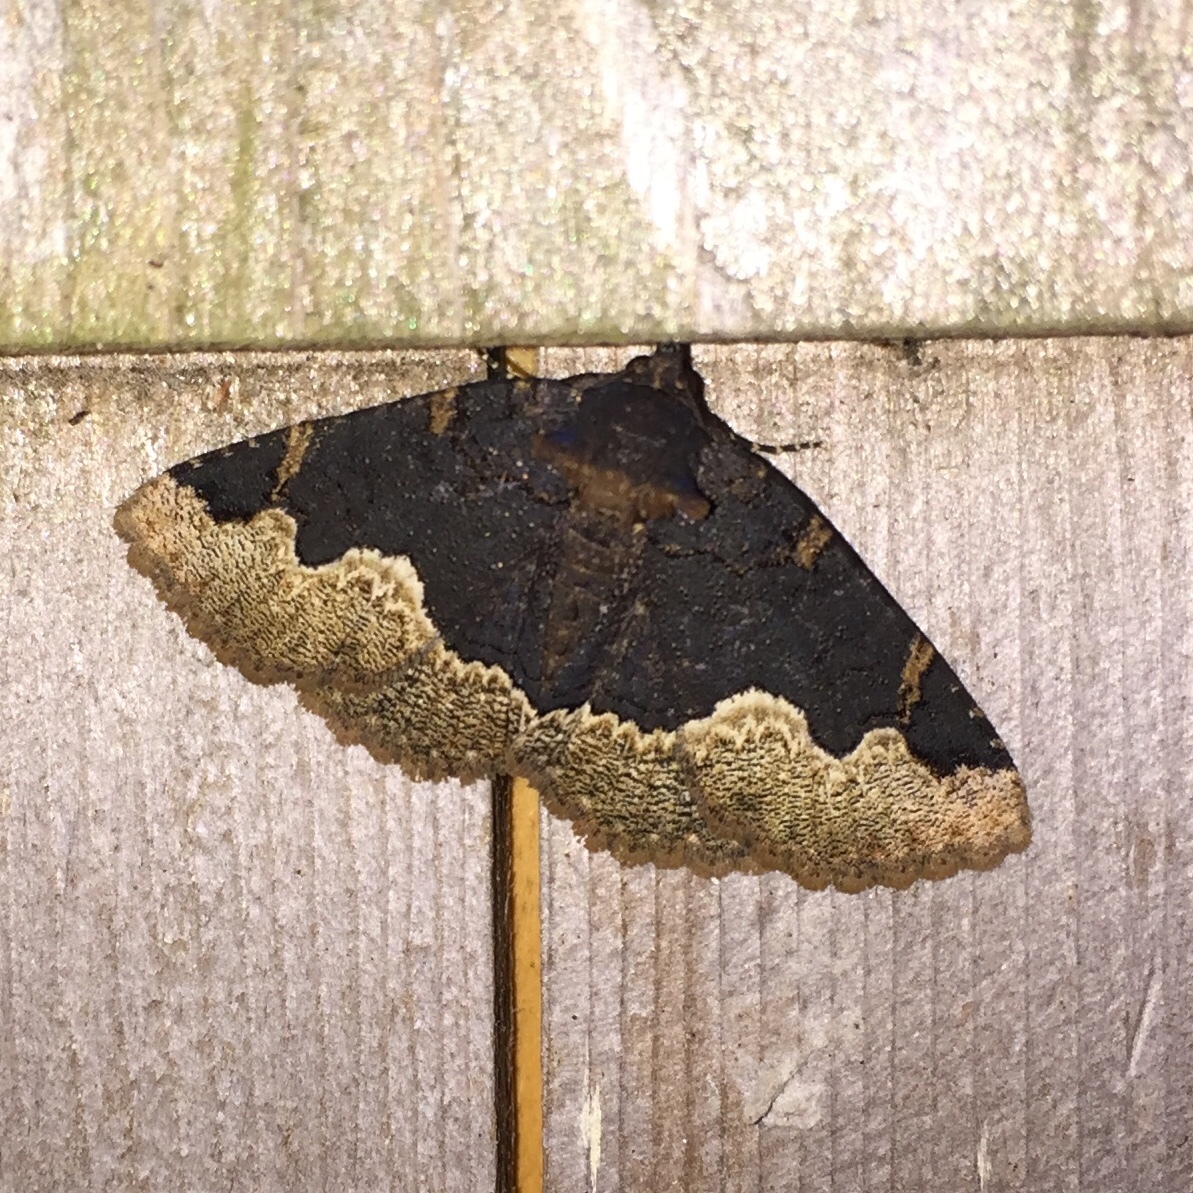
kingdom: Animalia
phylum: Arthropoda
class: Insecta
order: Lepidoptera
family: Erebidae
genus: Zale
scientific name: Zale horrida
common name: Horrid zale moth
